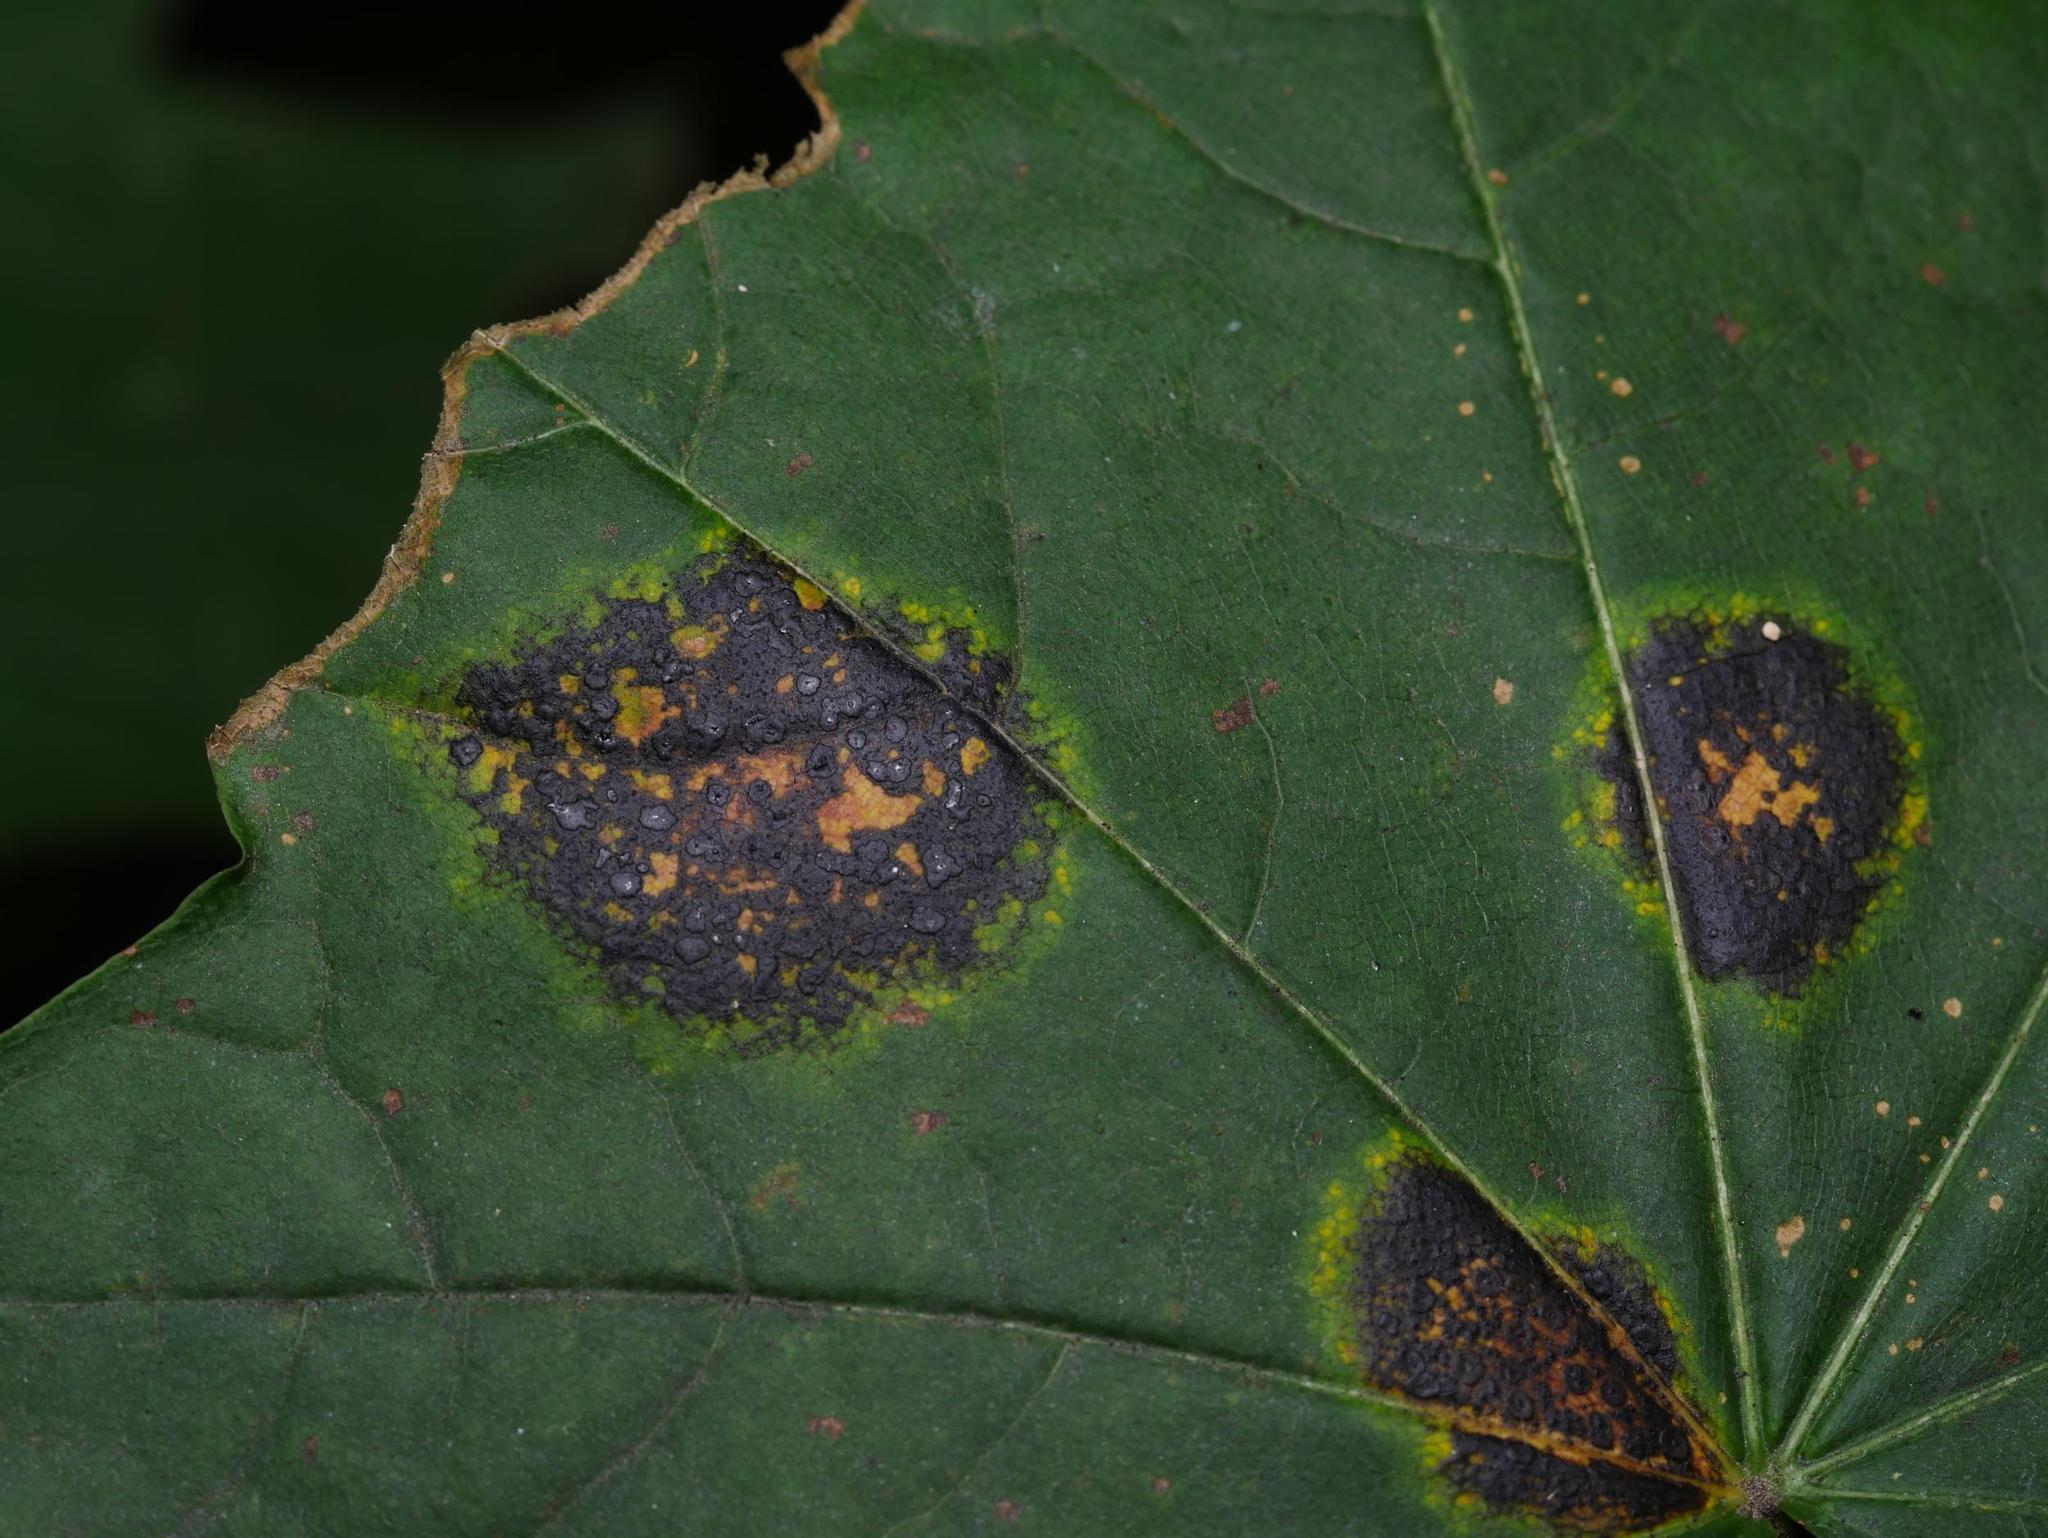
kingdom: Fungi
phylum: Ascomycota
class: Leotiomycetes
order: Rhytismatales
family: Rhytismataceae
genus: Rhytisma
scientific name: Rhytisma acerinum
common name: European tar spot
